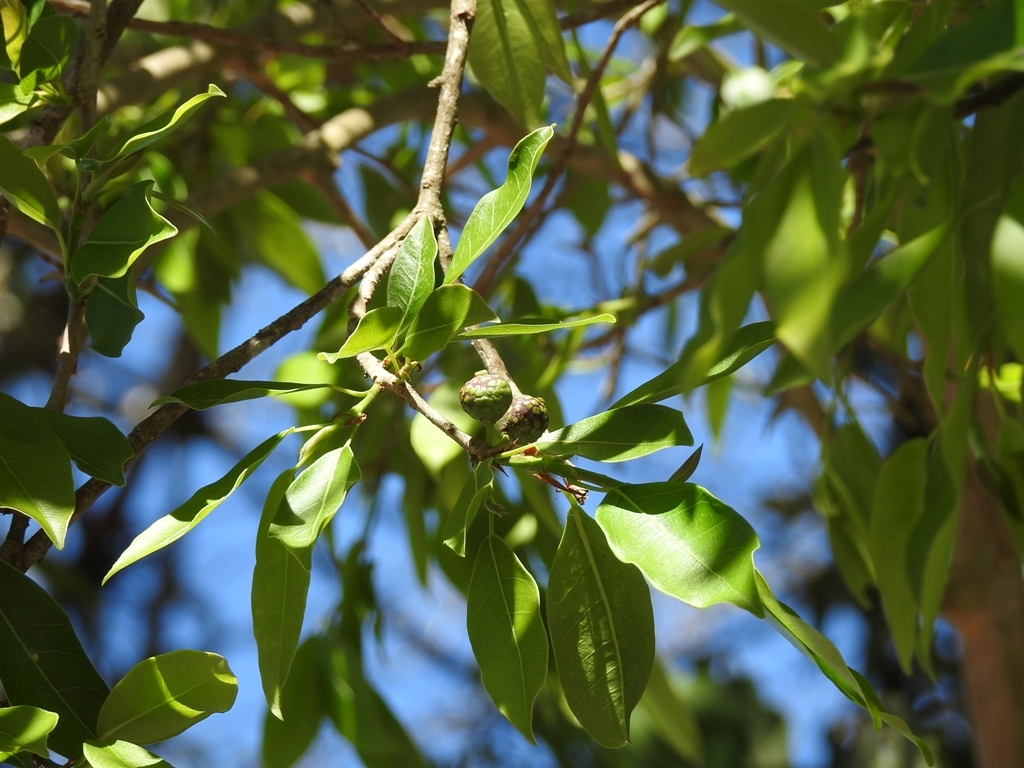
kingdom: Plantae
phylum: Tracheophyta
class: Magnoliopsida
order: Rosales
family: Moraceae
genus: Ficus
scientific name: Ficus pertusa
